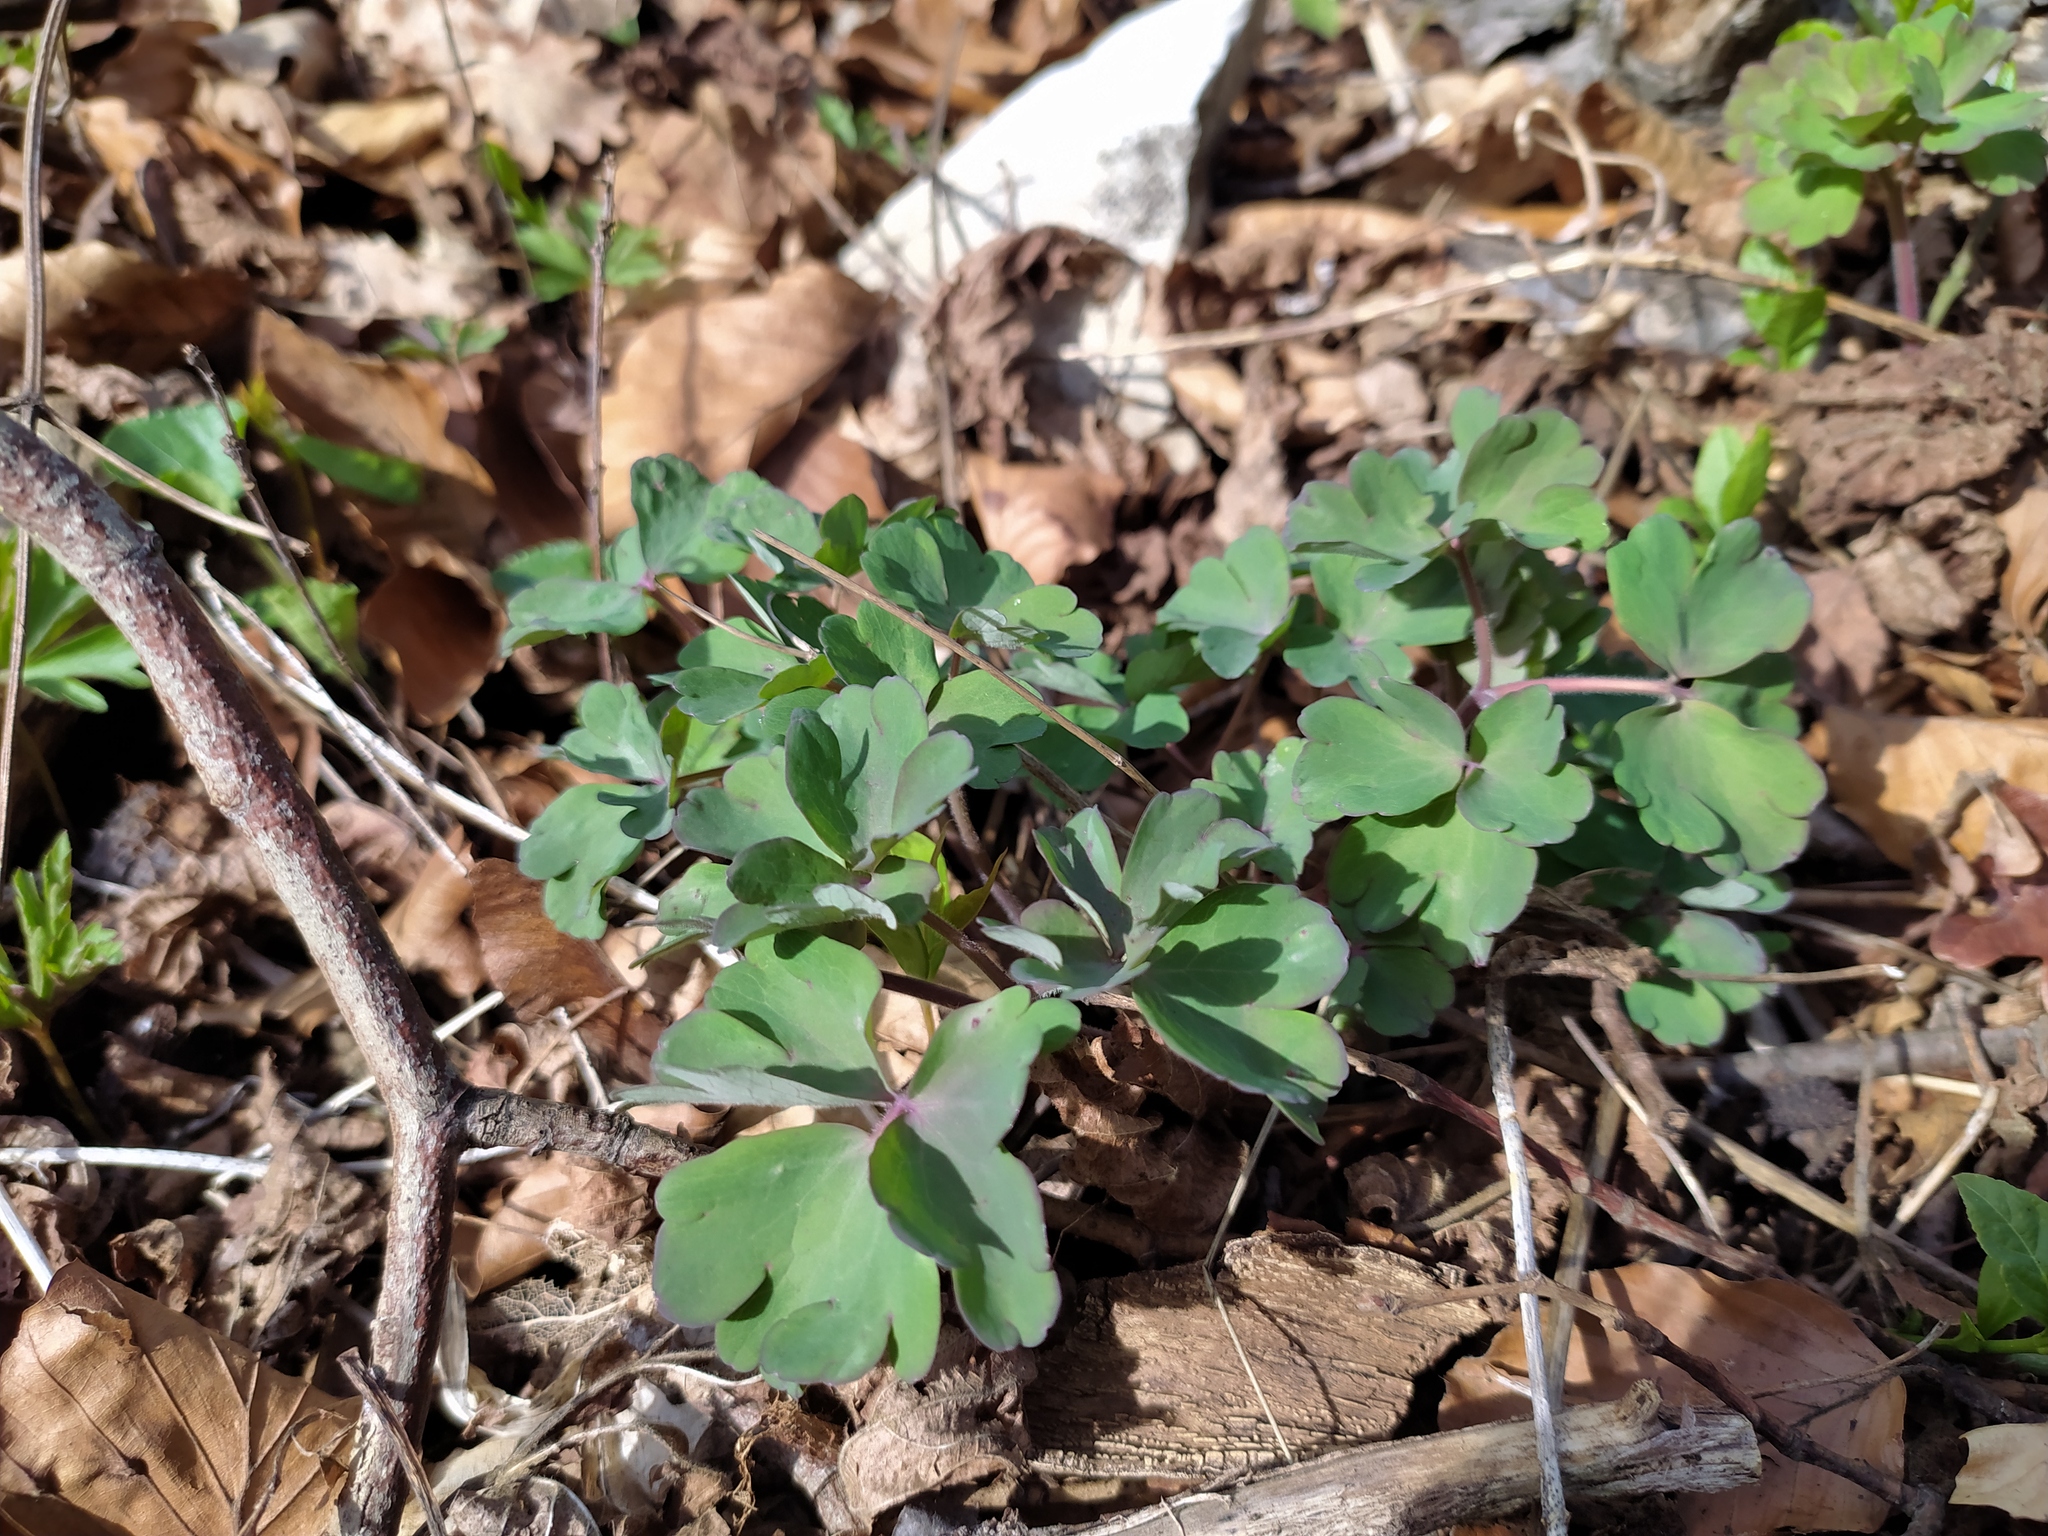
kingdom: Plantae
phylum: Tracheophyta
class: Magnoliopsida
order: Ranunculales
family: Ranunculaceae
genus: Aquilegia
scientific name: Aquilegia vulgaris
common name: Columbine
